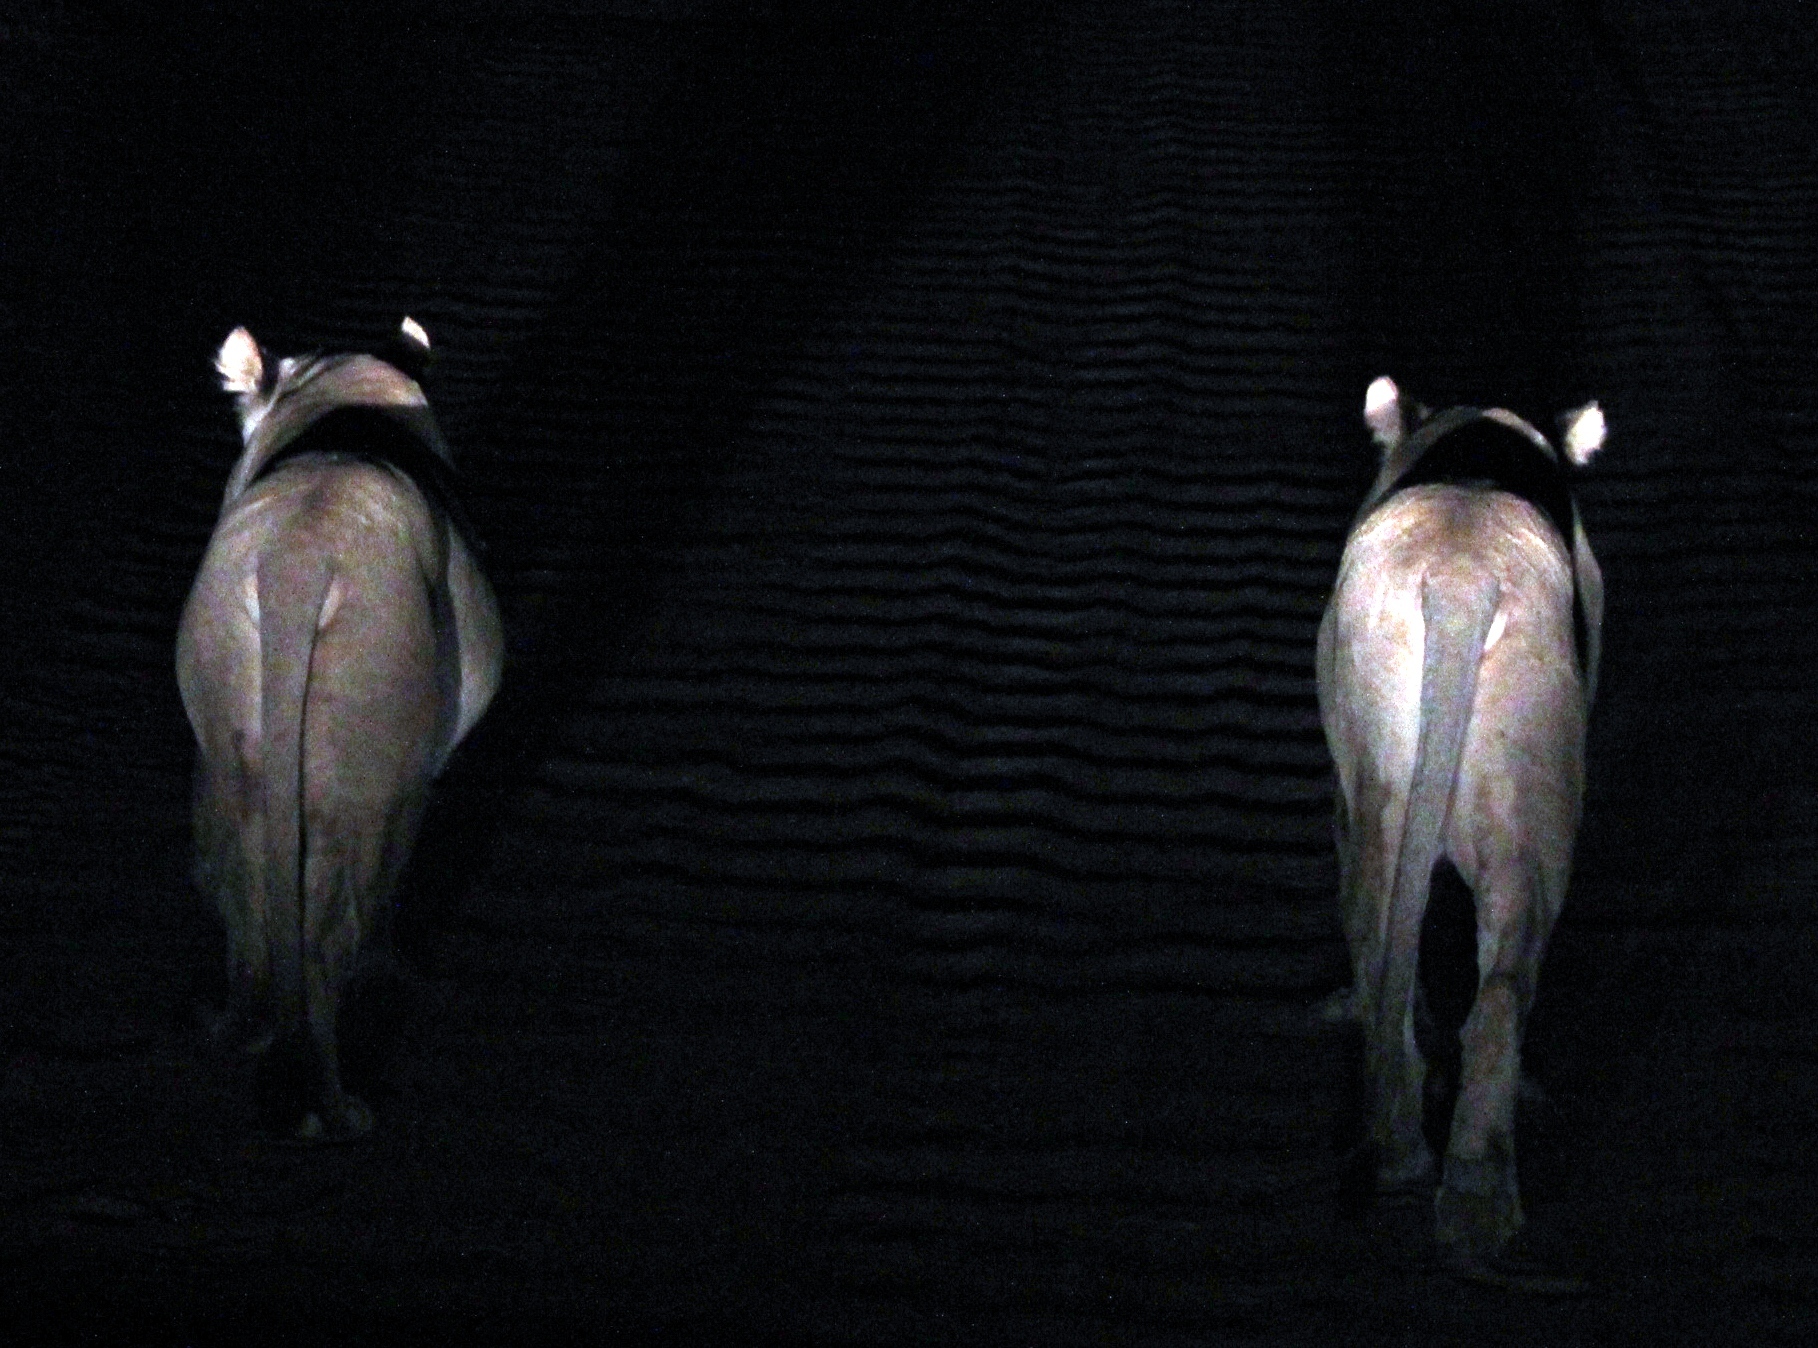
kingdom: Animalia
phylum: Chordata
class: Mammalia
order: Carnivora
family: Felidae
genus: Panthera
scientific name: Panthera leo
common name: Lion
